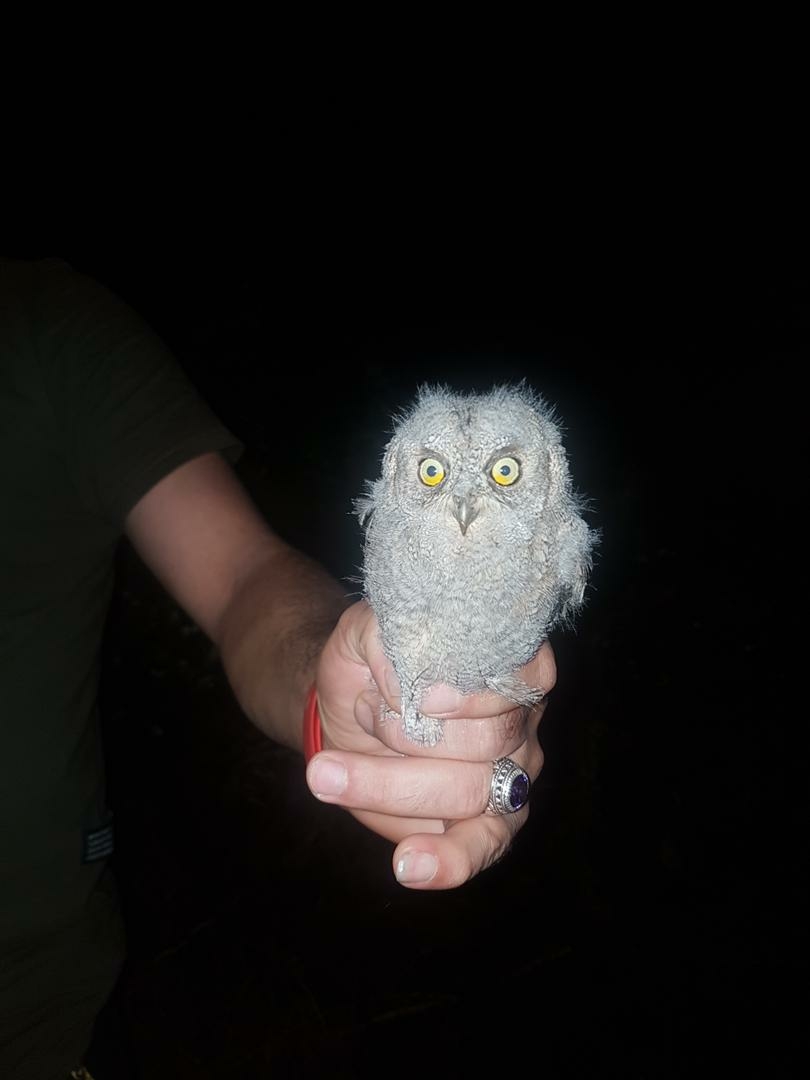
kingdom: Animalia
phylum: Chordata
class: Aves
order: Strigiformes
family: Strigidae
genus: Otus
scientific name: Otus scops
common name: Eurasian scops owl
